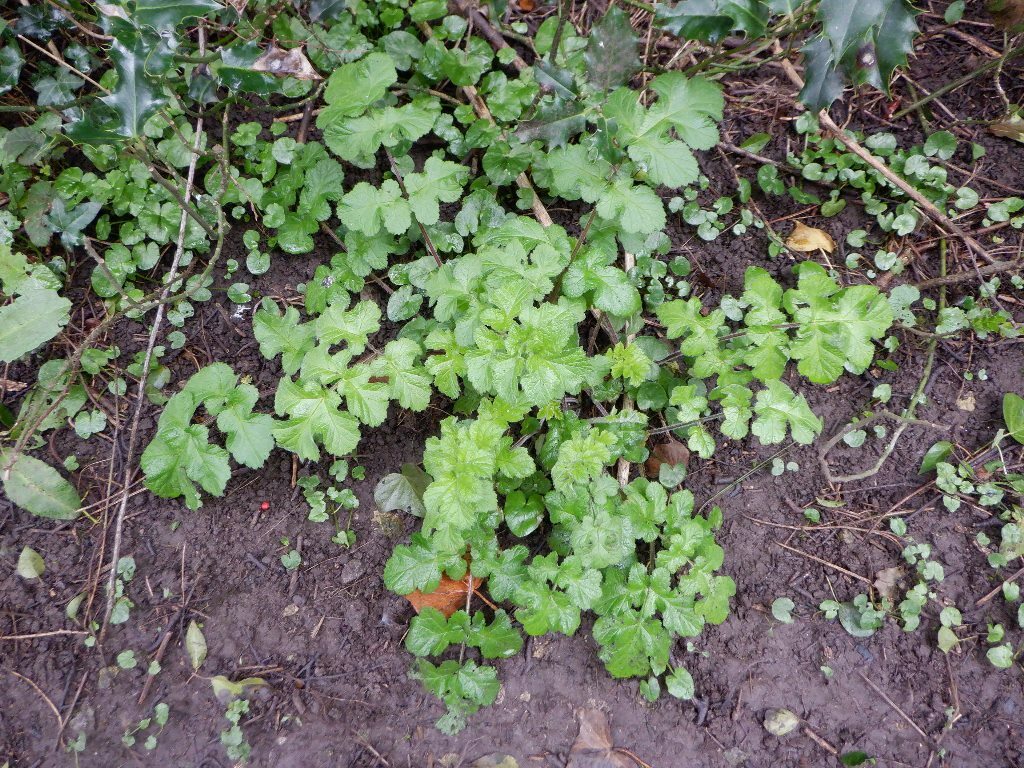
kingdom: Plantae
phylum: Tracheophyta
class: Magnoliopsida
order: Apiales
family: Apiaceae
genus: Heracleum
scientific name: Heracleum sphondylium
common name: Hogweed
